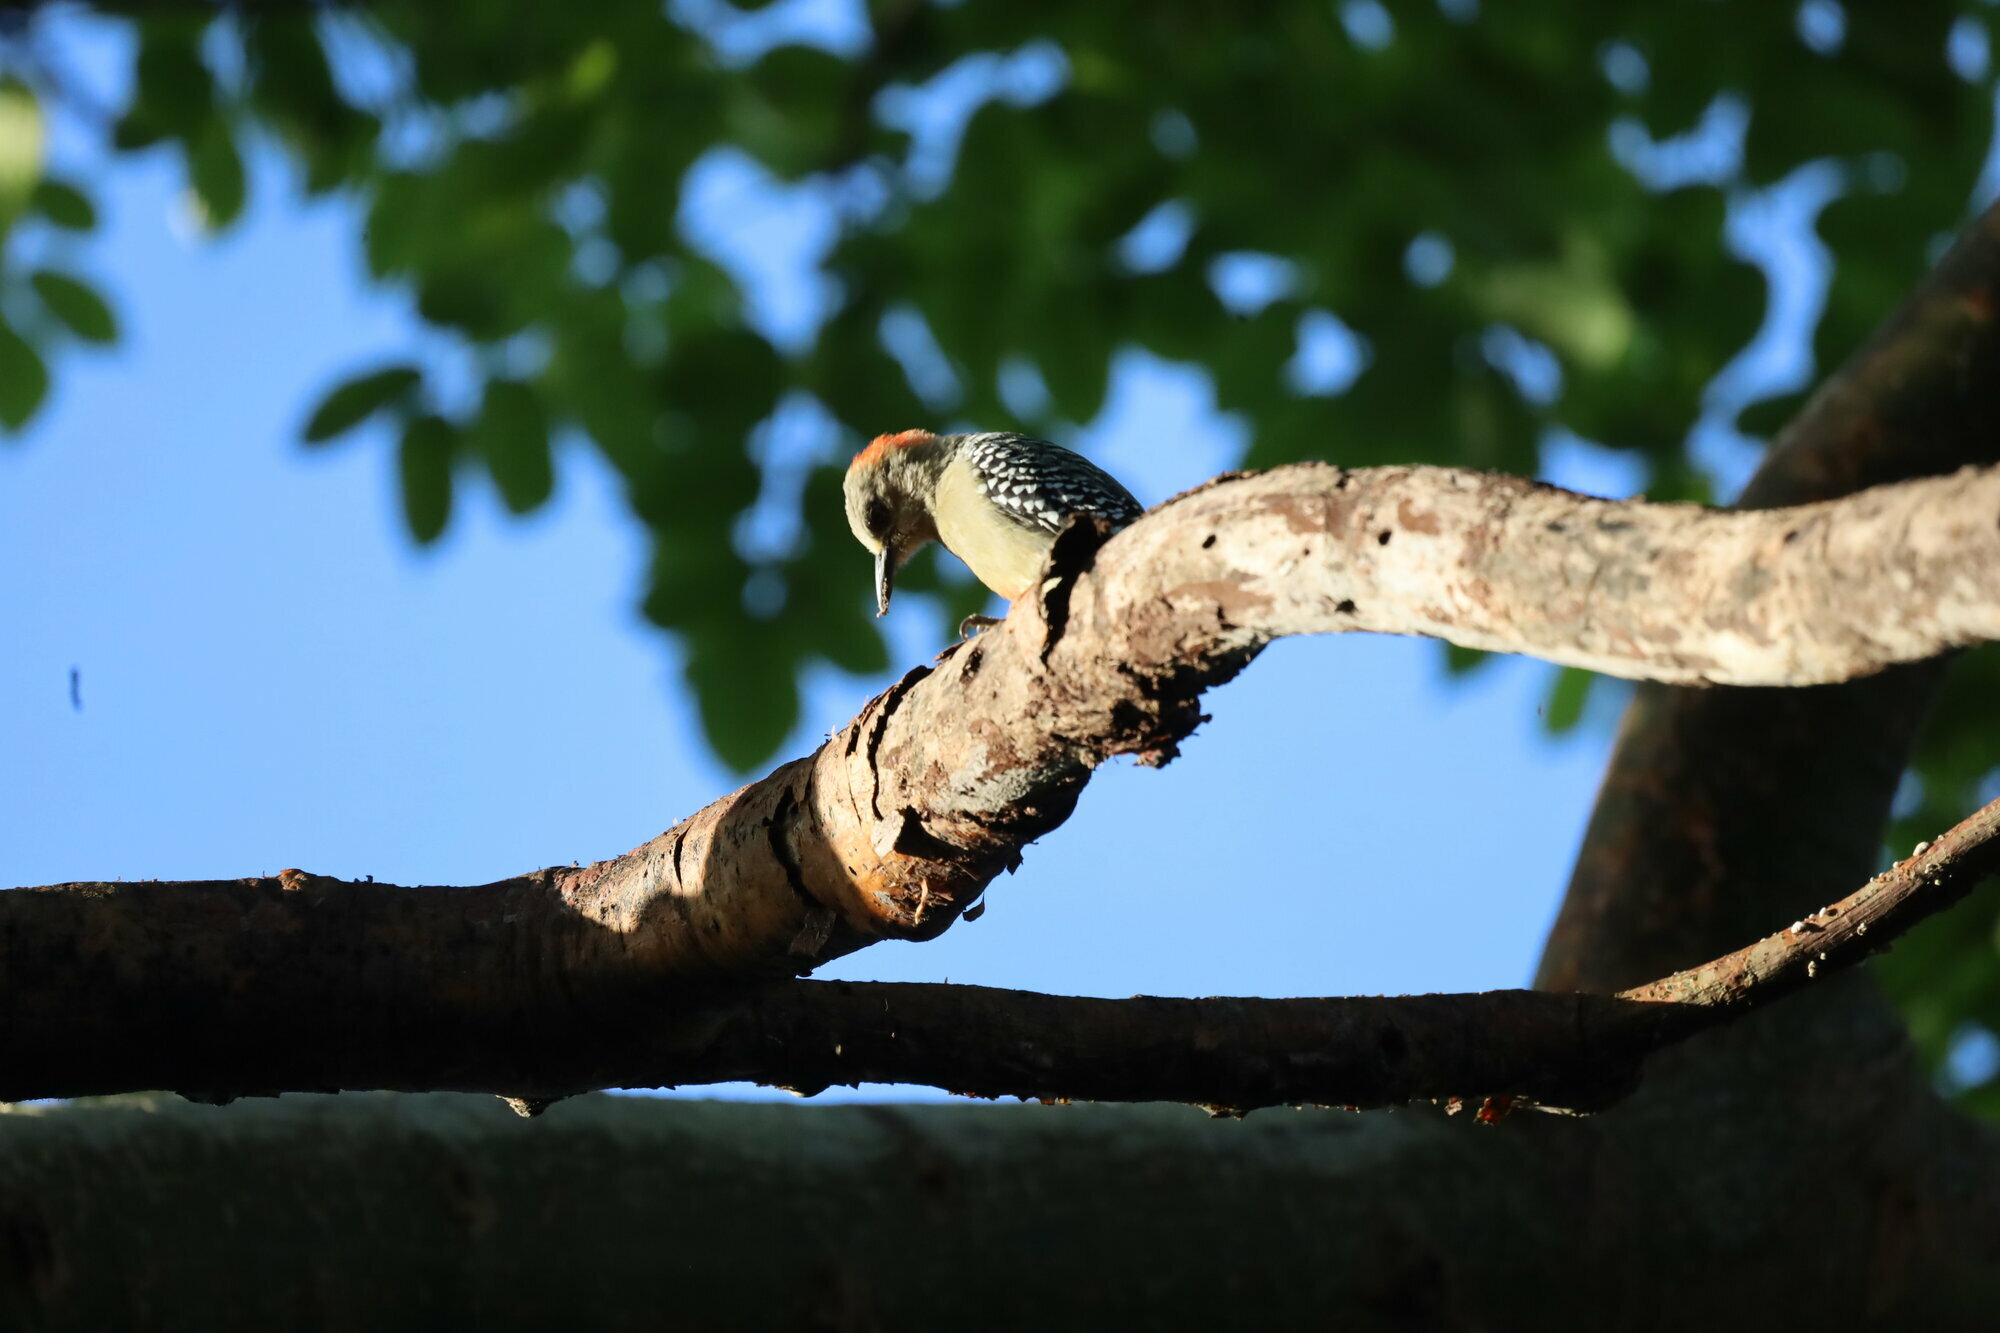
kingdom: Animalia
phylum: Chordata
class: Aves
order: Piciformes
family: Picidae
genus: Melanerpes
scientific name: Melanerpes rubricapillus
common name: Red-crowned woodpecker
